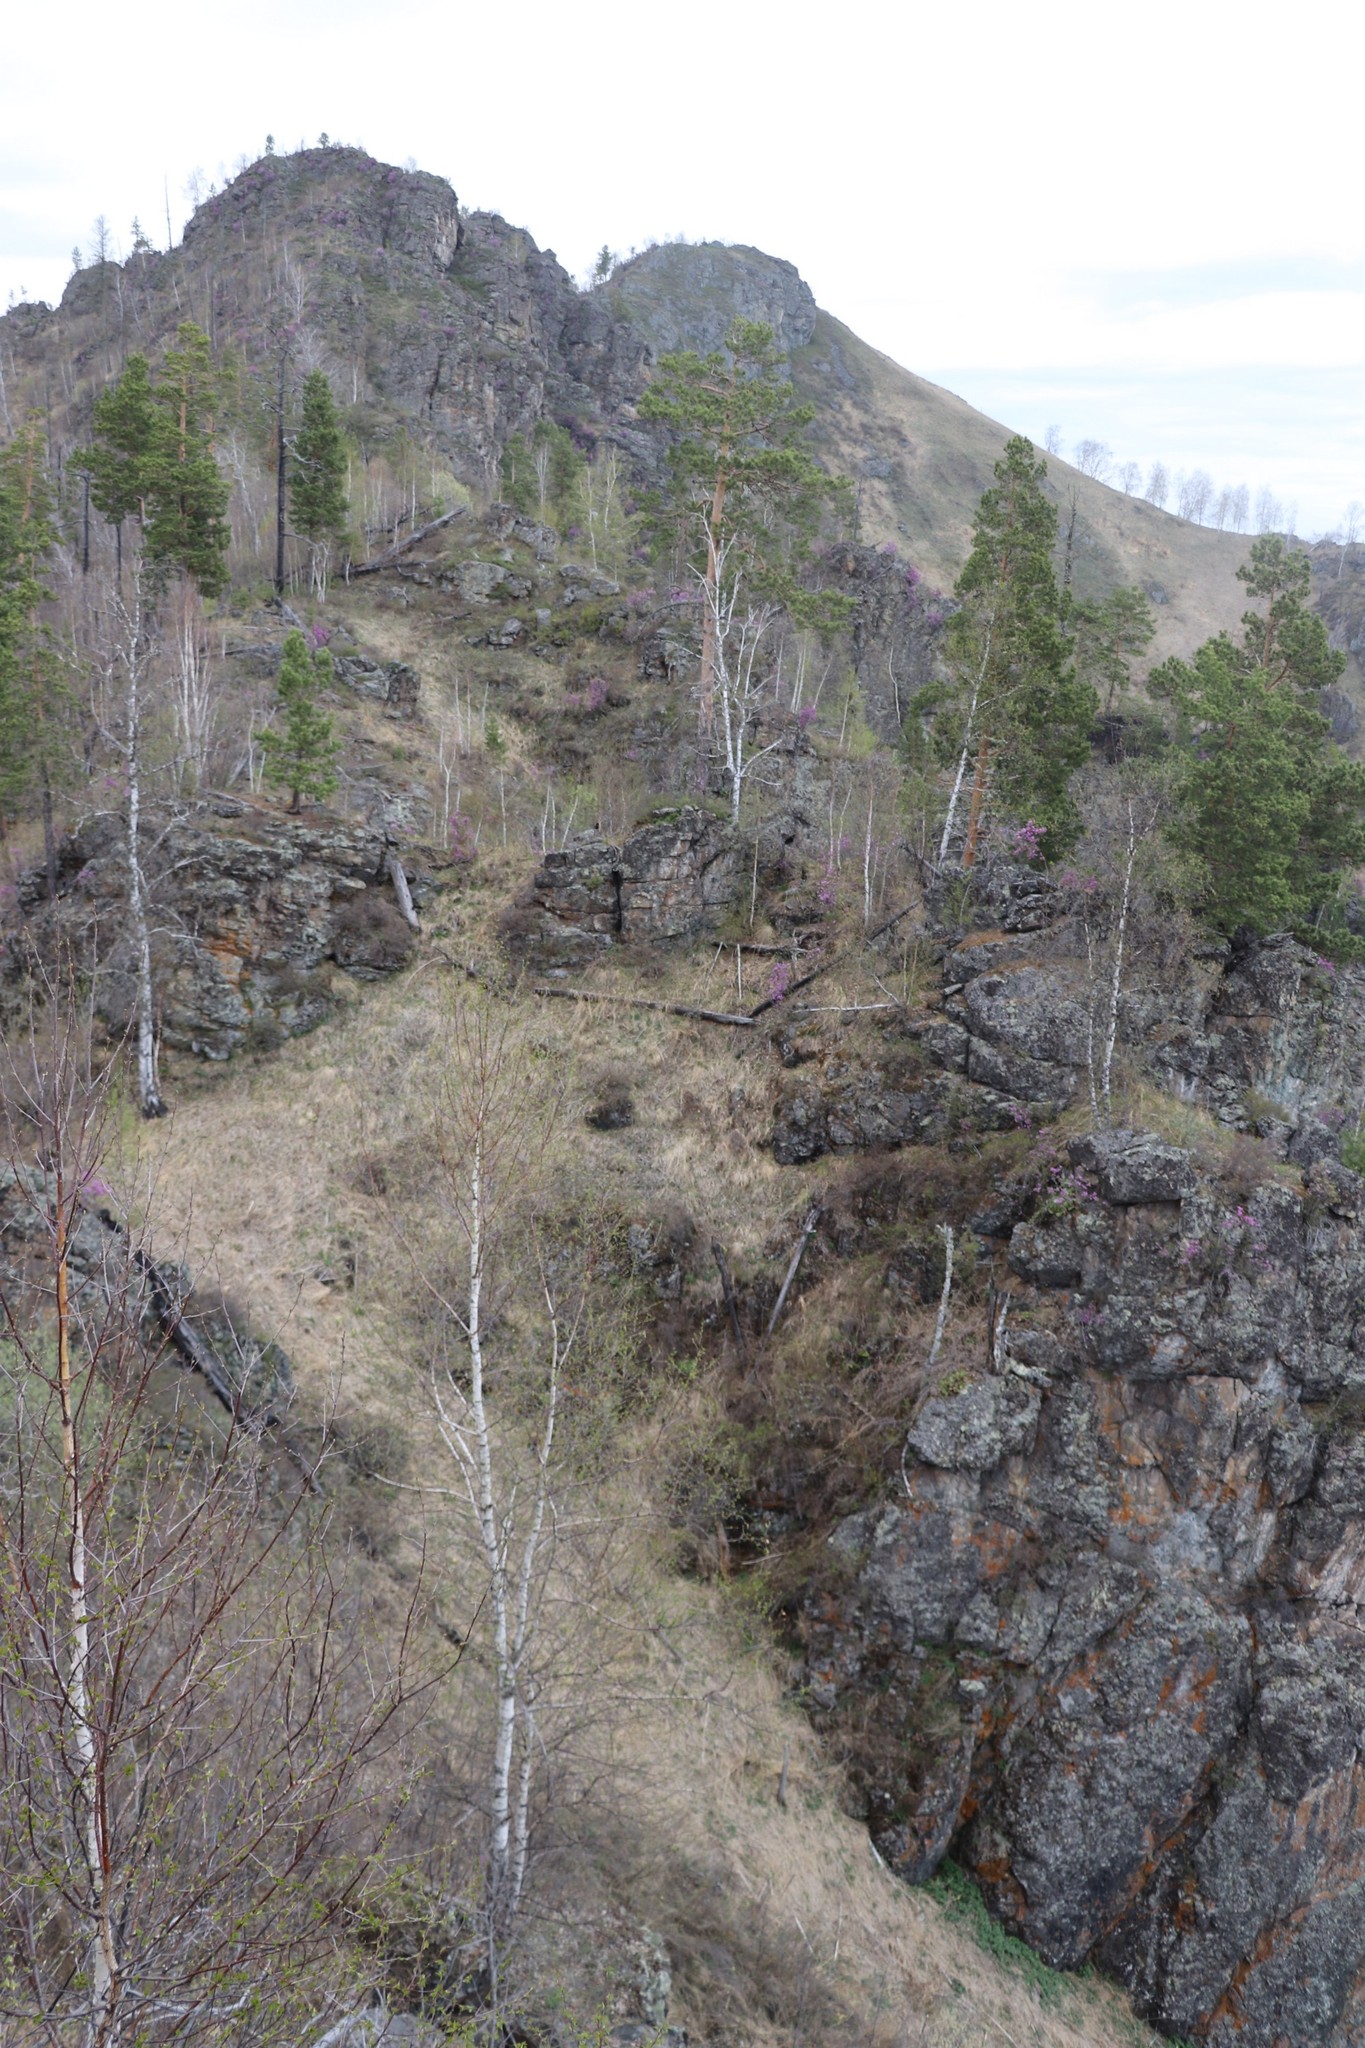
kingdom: Plantae
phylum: Tracheophyta
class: Pinopsida
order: Pinales
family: Pinaceae
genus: Pinus
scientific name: Pinus sylvestris
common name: Scots pine
